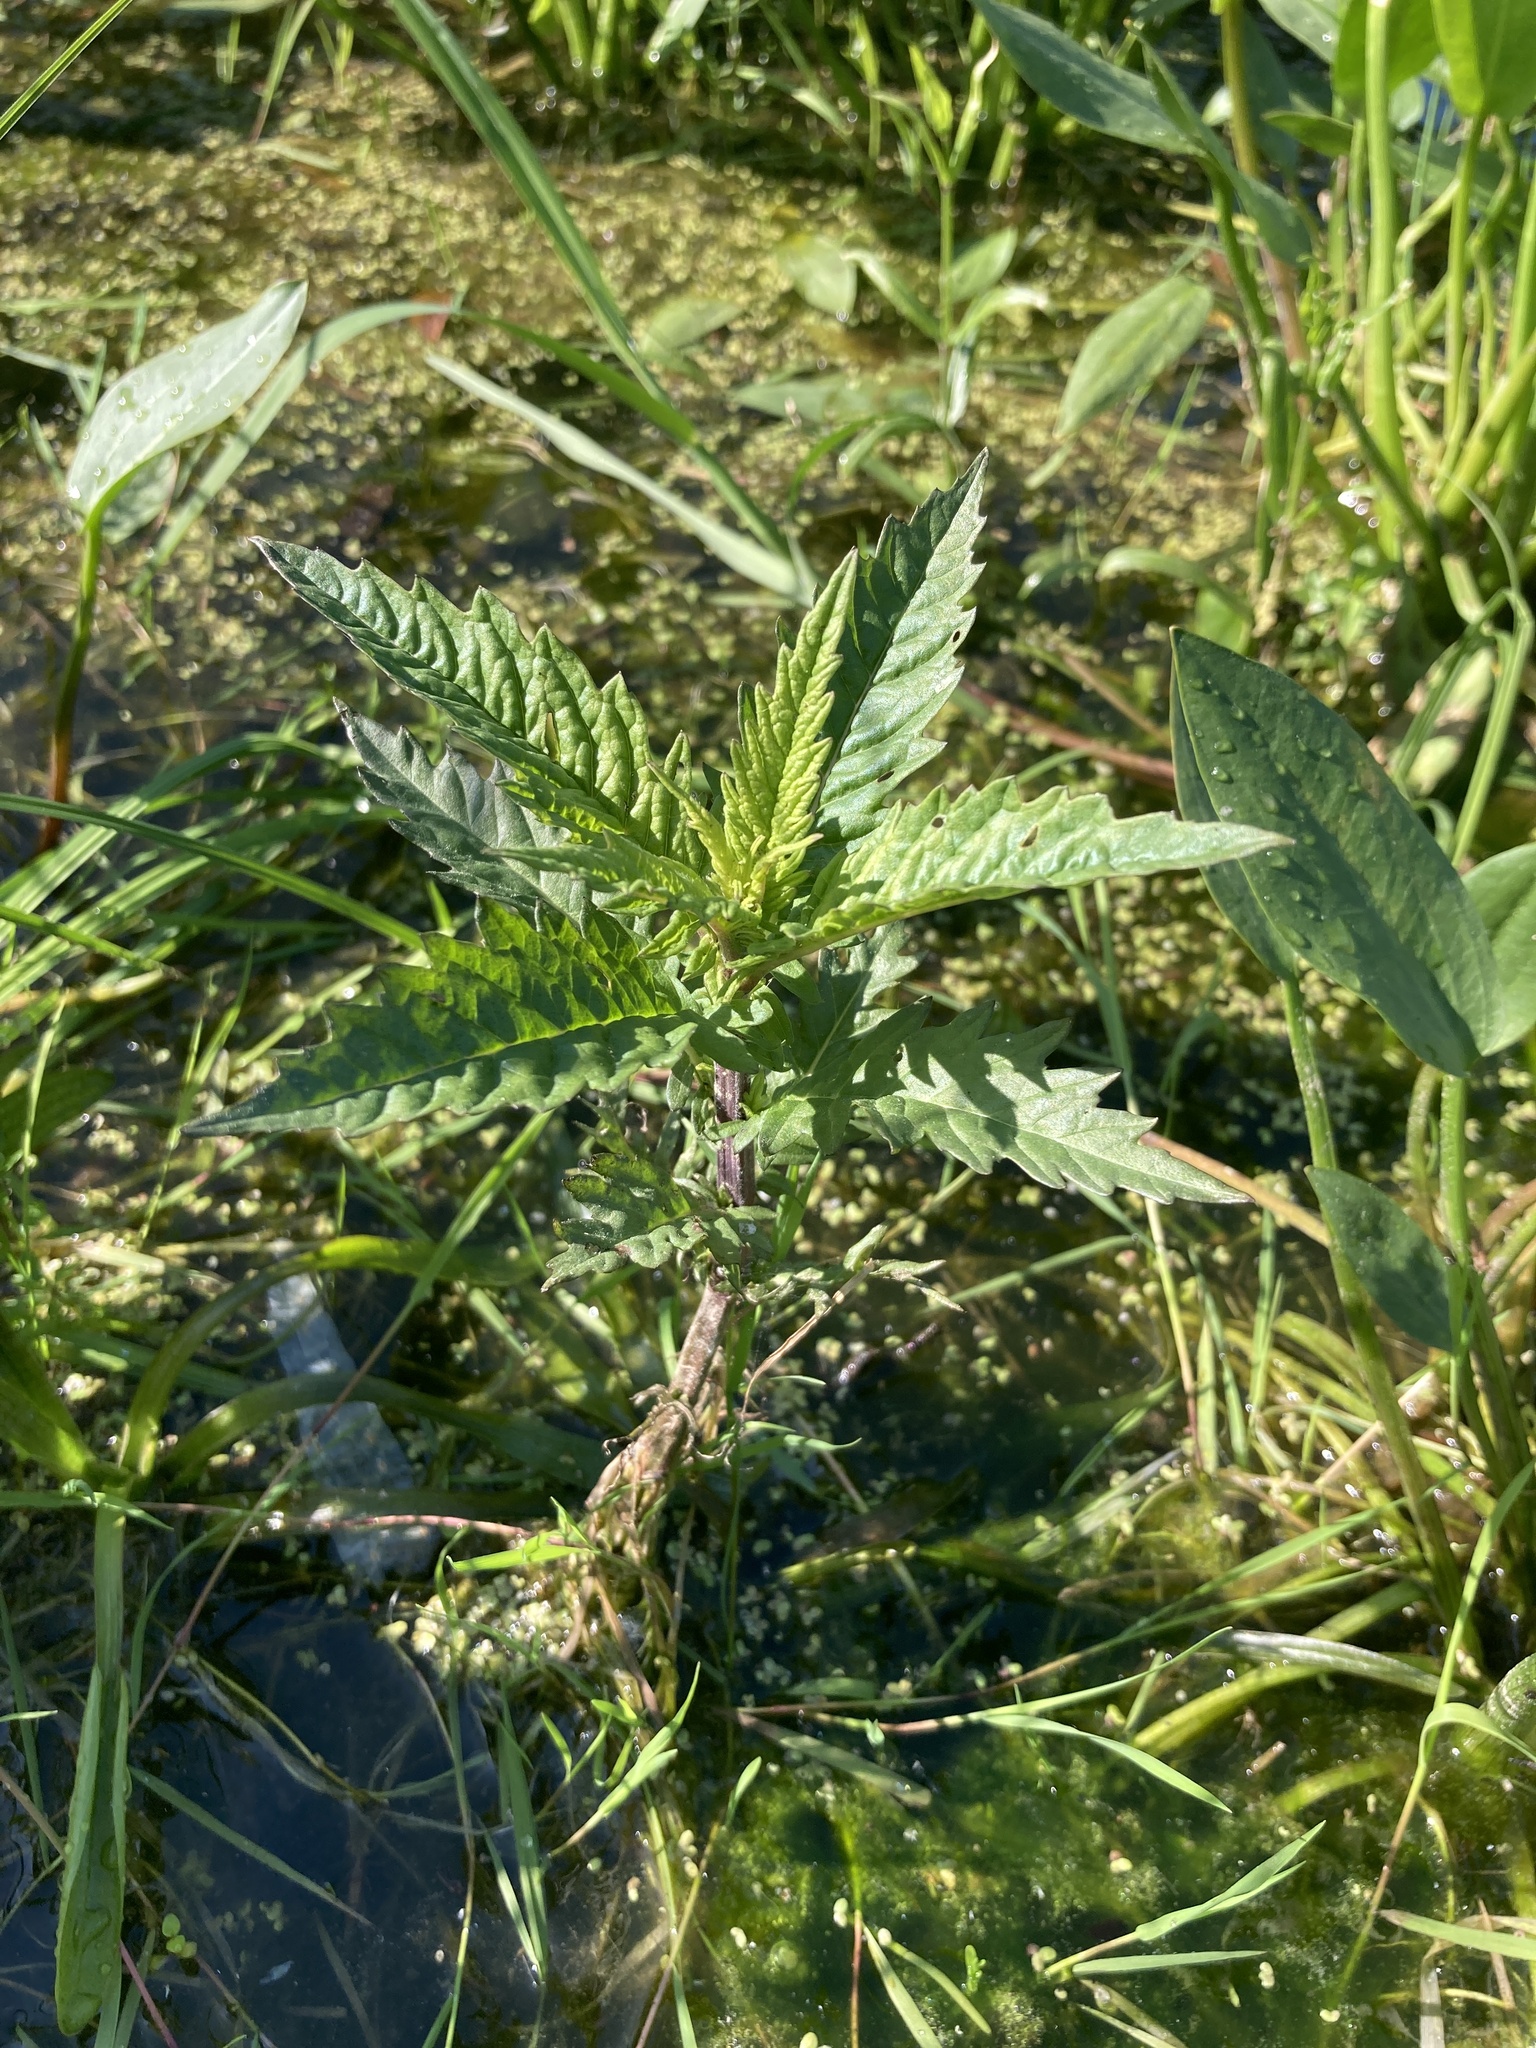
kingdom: Plantae
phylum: Tracheophyta
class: Magnoliopsida
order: Lamiales
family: Lamiaceae
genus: Lycopus
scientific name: Lycopus europaeus
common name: European bugleweed
